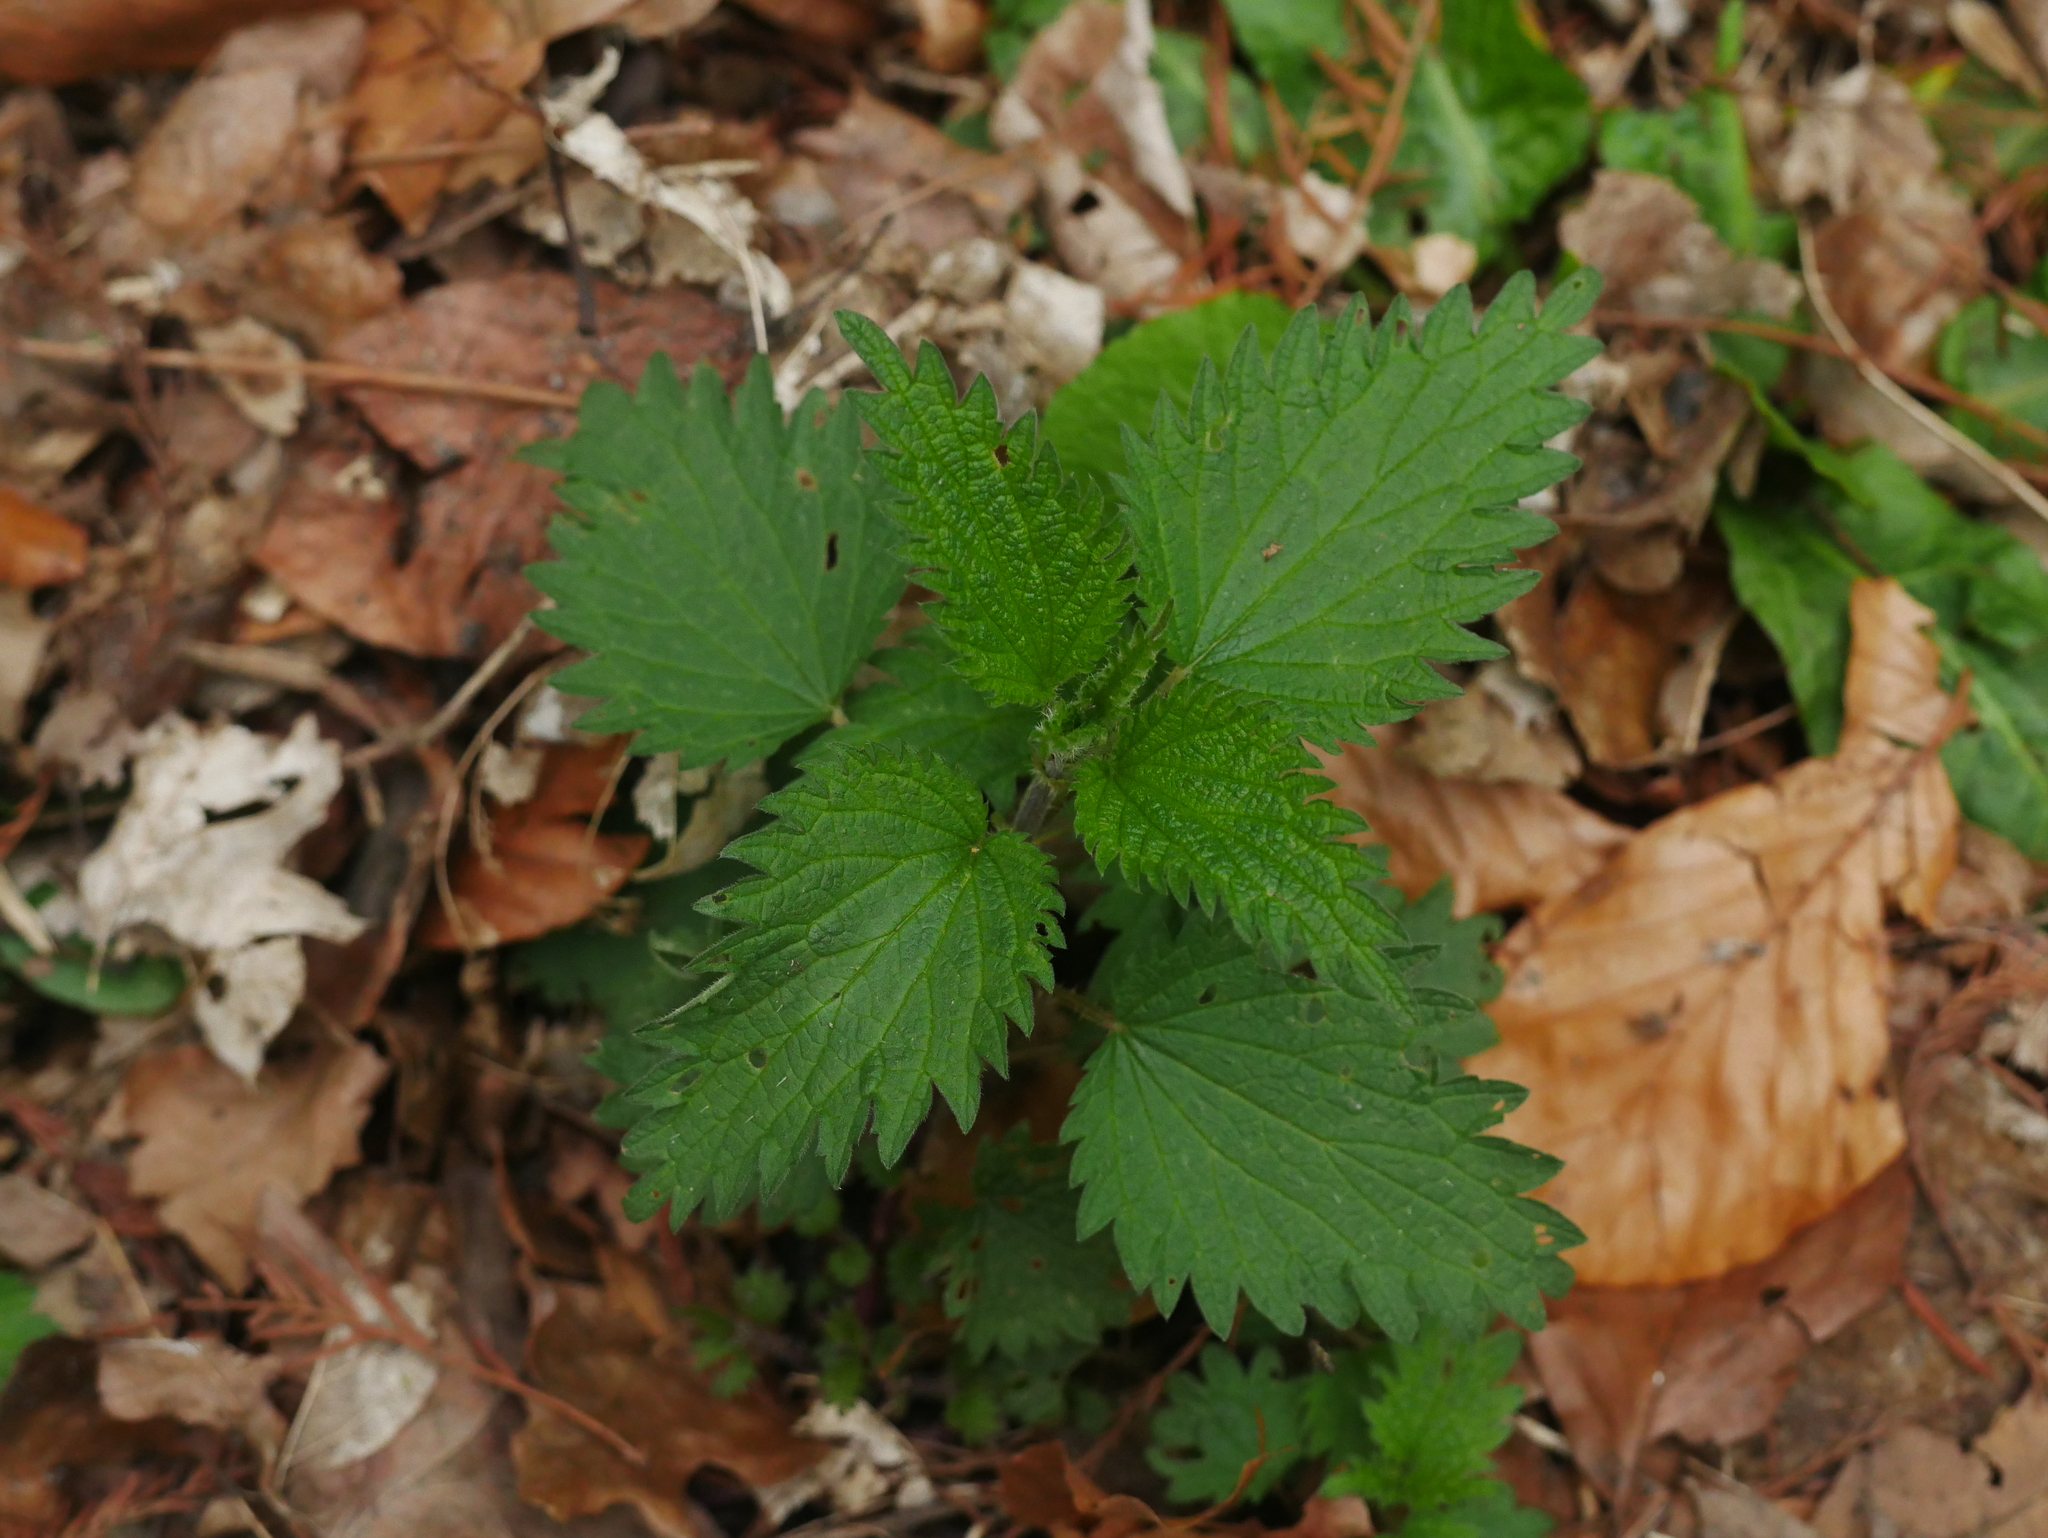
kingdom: Plantae
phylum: Tracheophyta
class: Magnoliopsida
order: Rosales
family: Urticaceae
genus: Urtica
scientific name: Urtica dioica
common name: Common nettle
